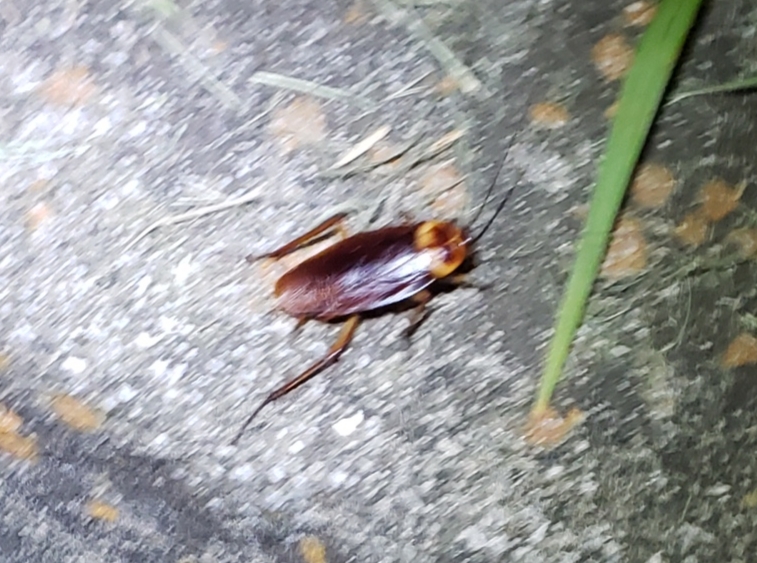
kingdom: Animalia
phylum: Arthropoda
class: Insecta
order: Blattodea
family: Blattidae
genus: Periplaneta
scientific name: Periplaneta americana
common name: American cockroach
